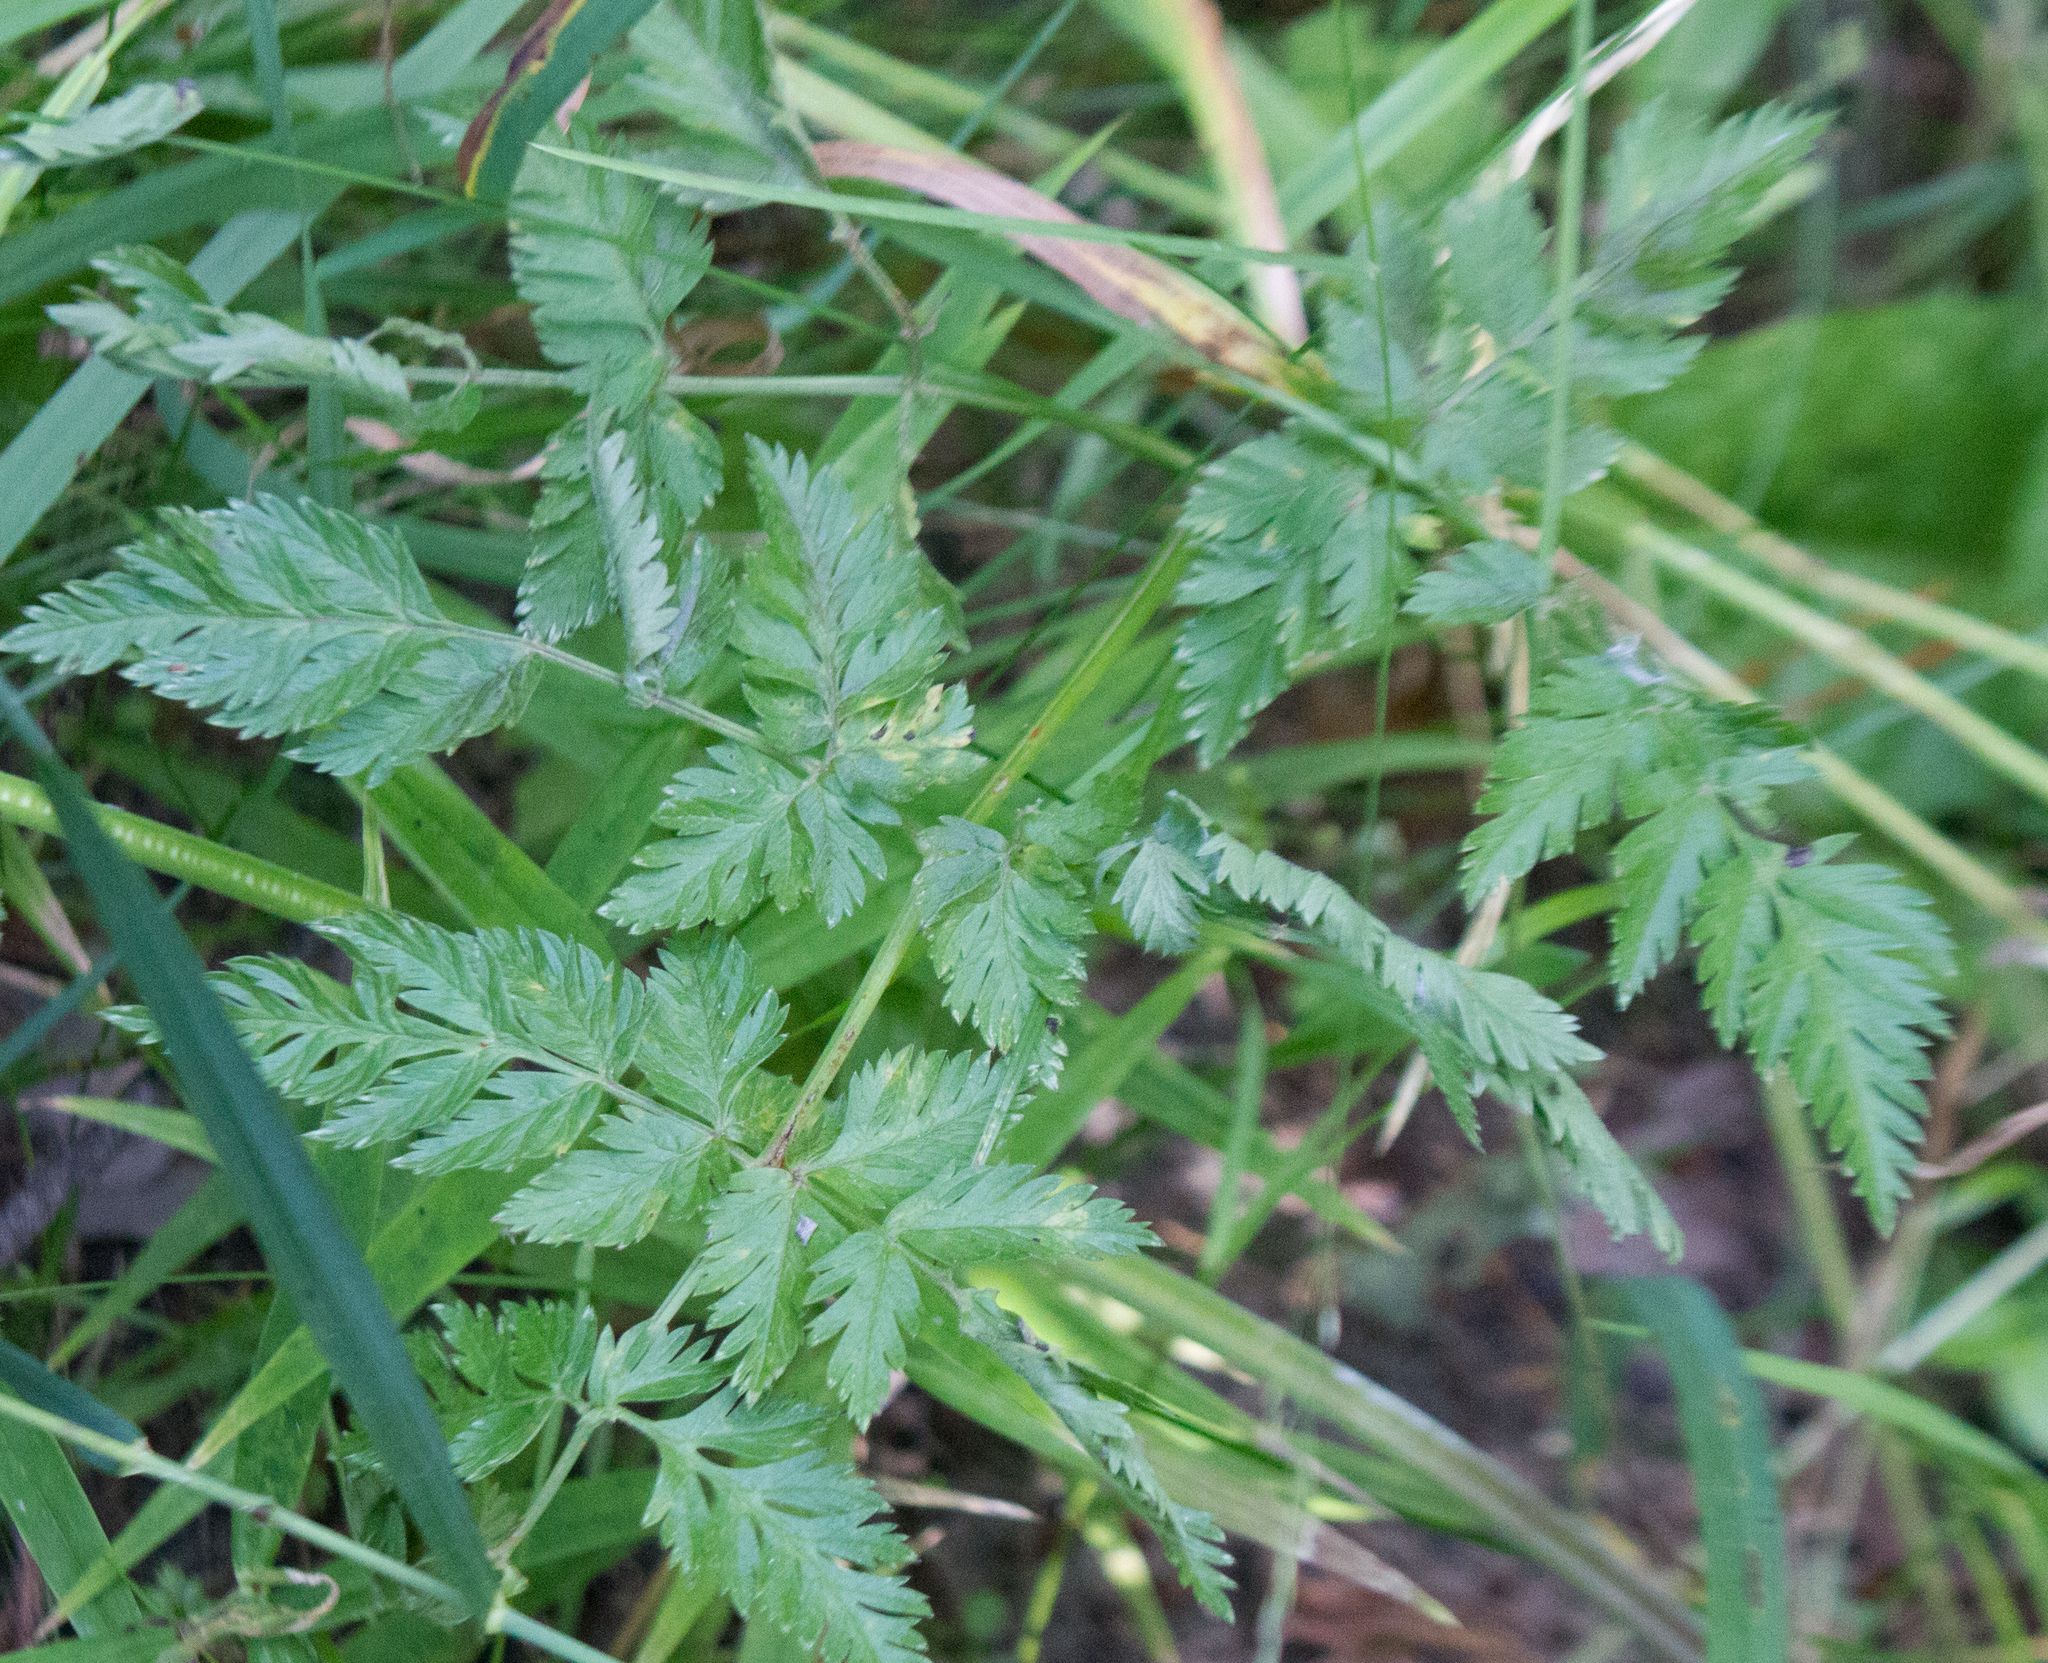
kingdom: Plantae
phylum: Tracheophyta
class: Magnoliopsida
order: Apiales
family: Apiaceae
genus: Anthriscus
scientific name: Anthriscus sylvestris
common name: Cow parsley
